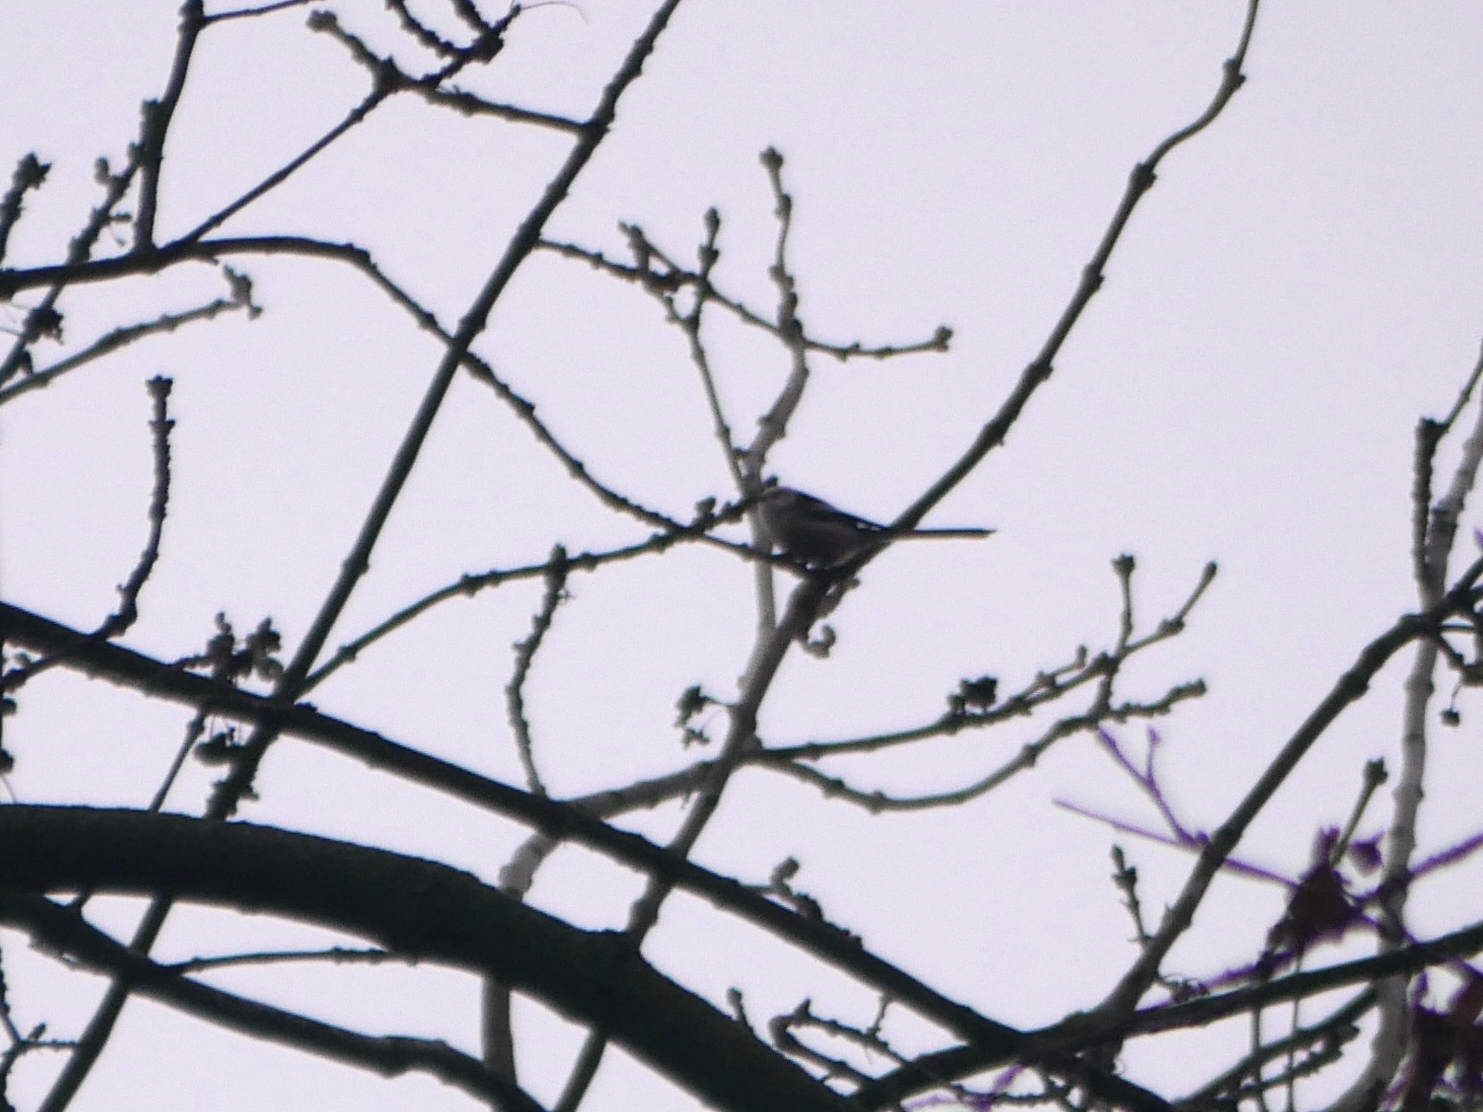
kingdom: Animalia
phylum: Chordata
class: Aves
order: Passeriformes
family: Aegithalidae
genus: Aegithalos
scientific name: Aegithalos caudatus
